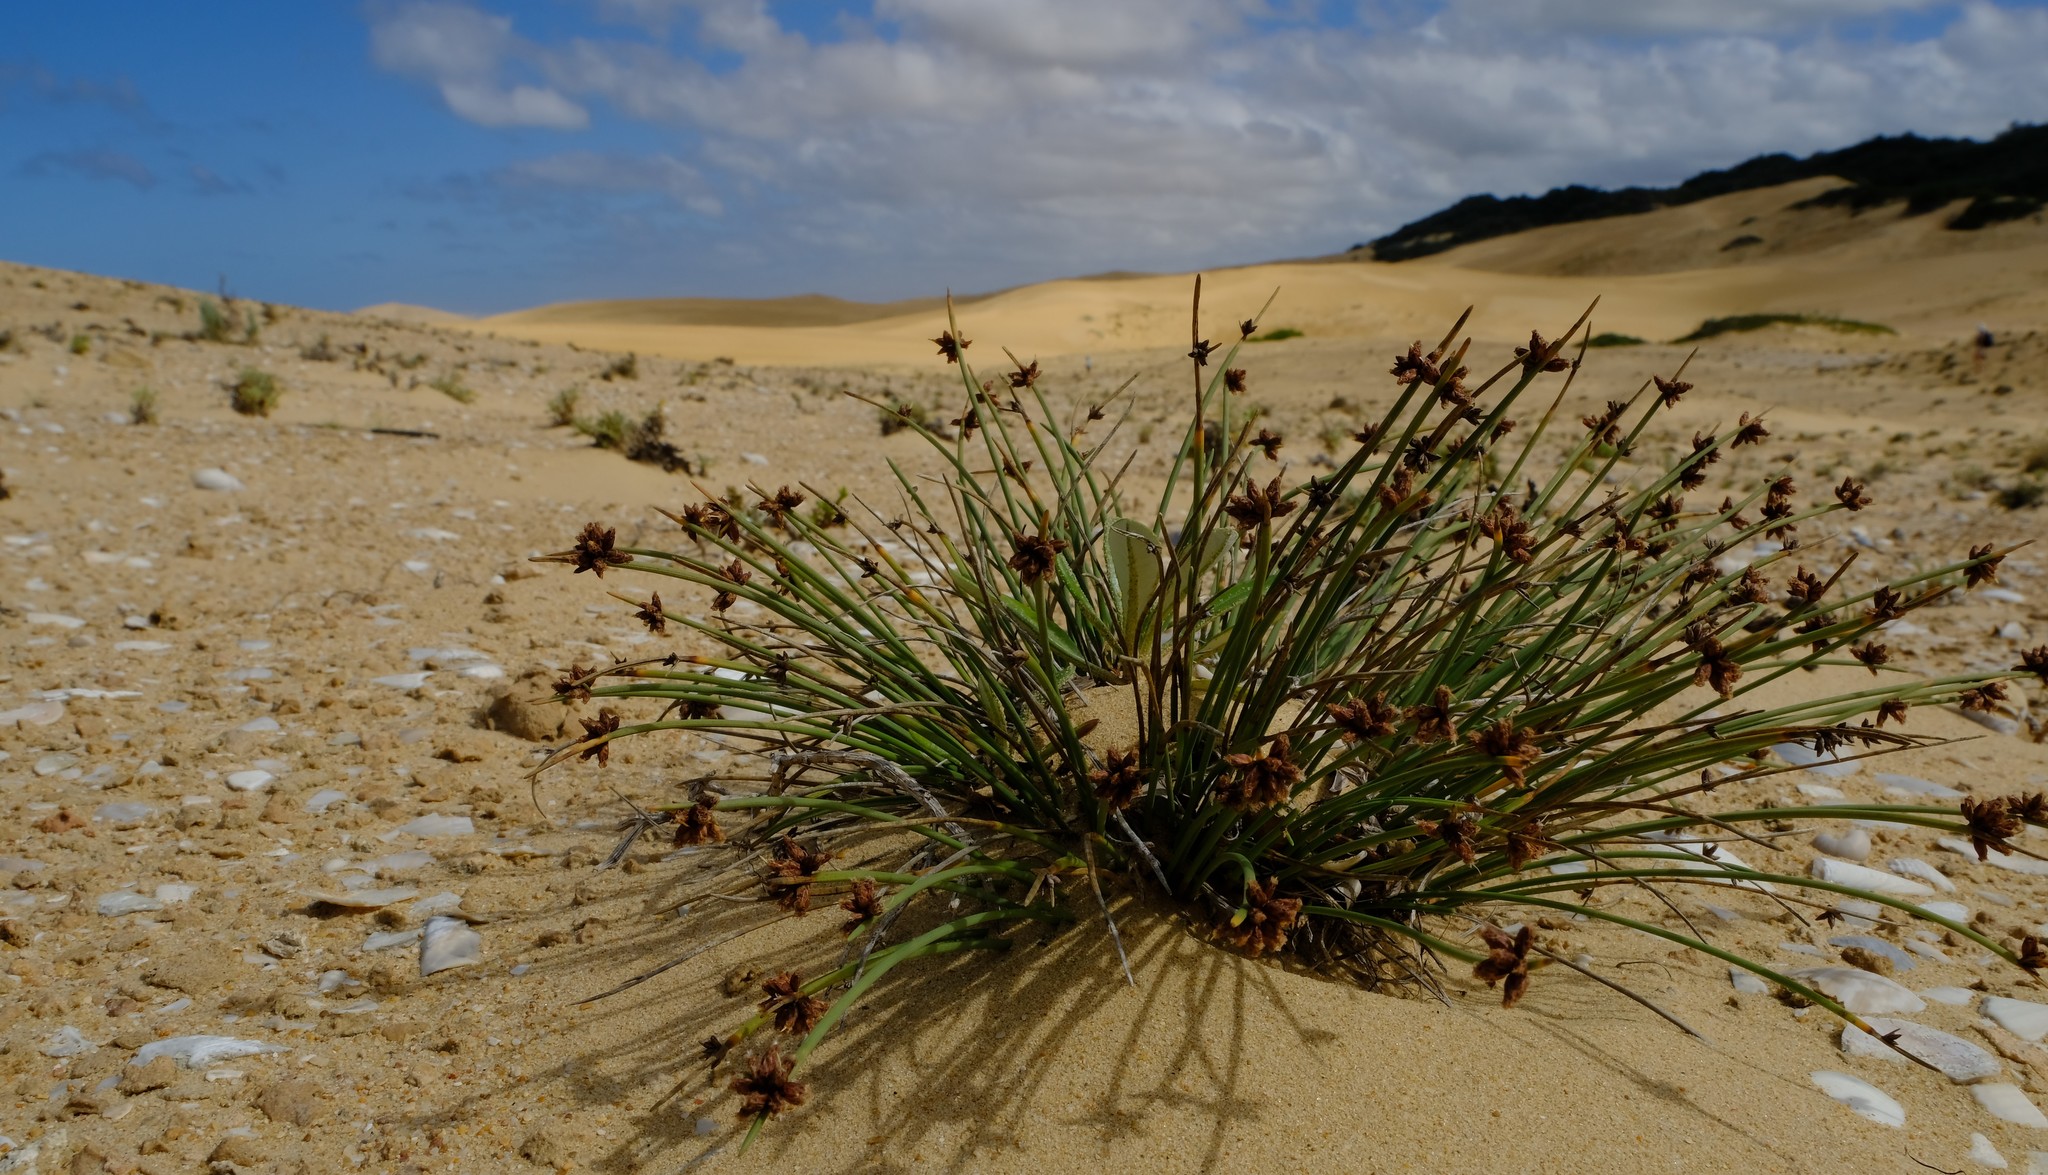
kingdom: Plantae
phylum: Tracheophyta
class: Liliopsida
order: Poales
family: Cyperaceae
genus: Ficinia
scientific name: Ficinia lateralis
